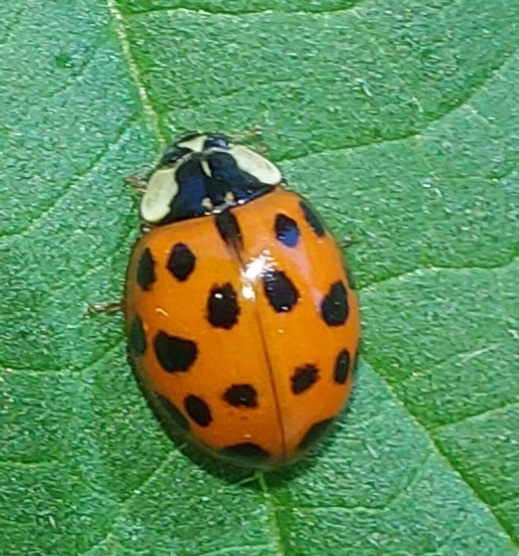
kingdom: Animalia
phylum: Arthropoda
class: Insecta
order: Coleoptera
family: Coccinellidae
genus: Harmonia
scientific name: Harmonia axyridis
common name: Harlequin ladybird
